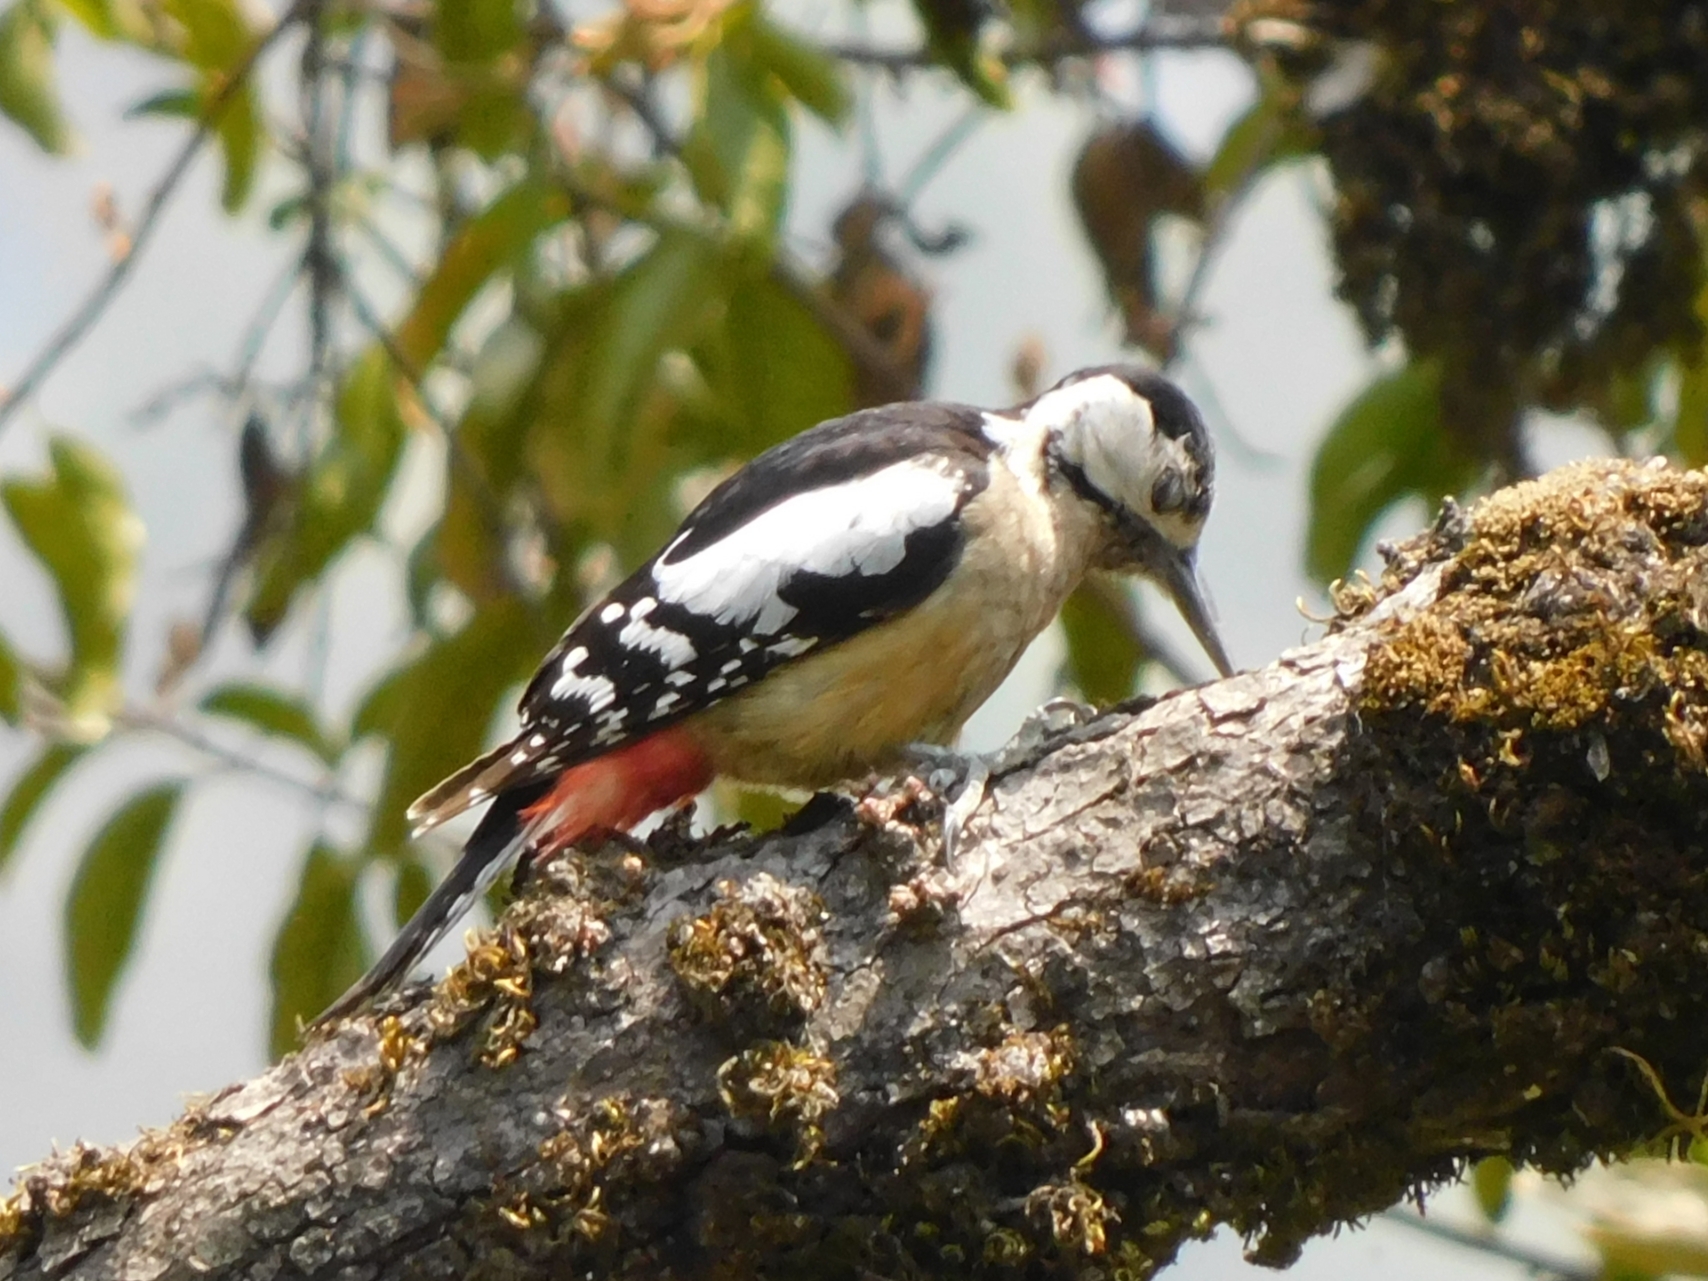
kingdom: Animalia
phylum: Chordata
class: Aves
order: Piciformes
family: Picidae
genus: Dendrocopos
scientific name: Dendrocopos himalayensis
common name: Himalayan woodpecker
